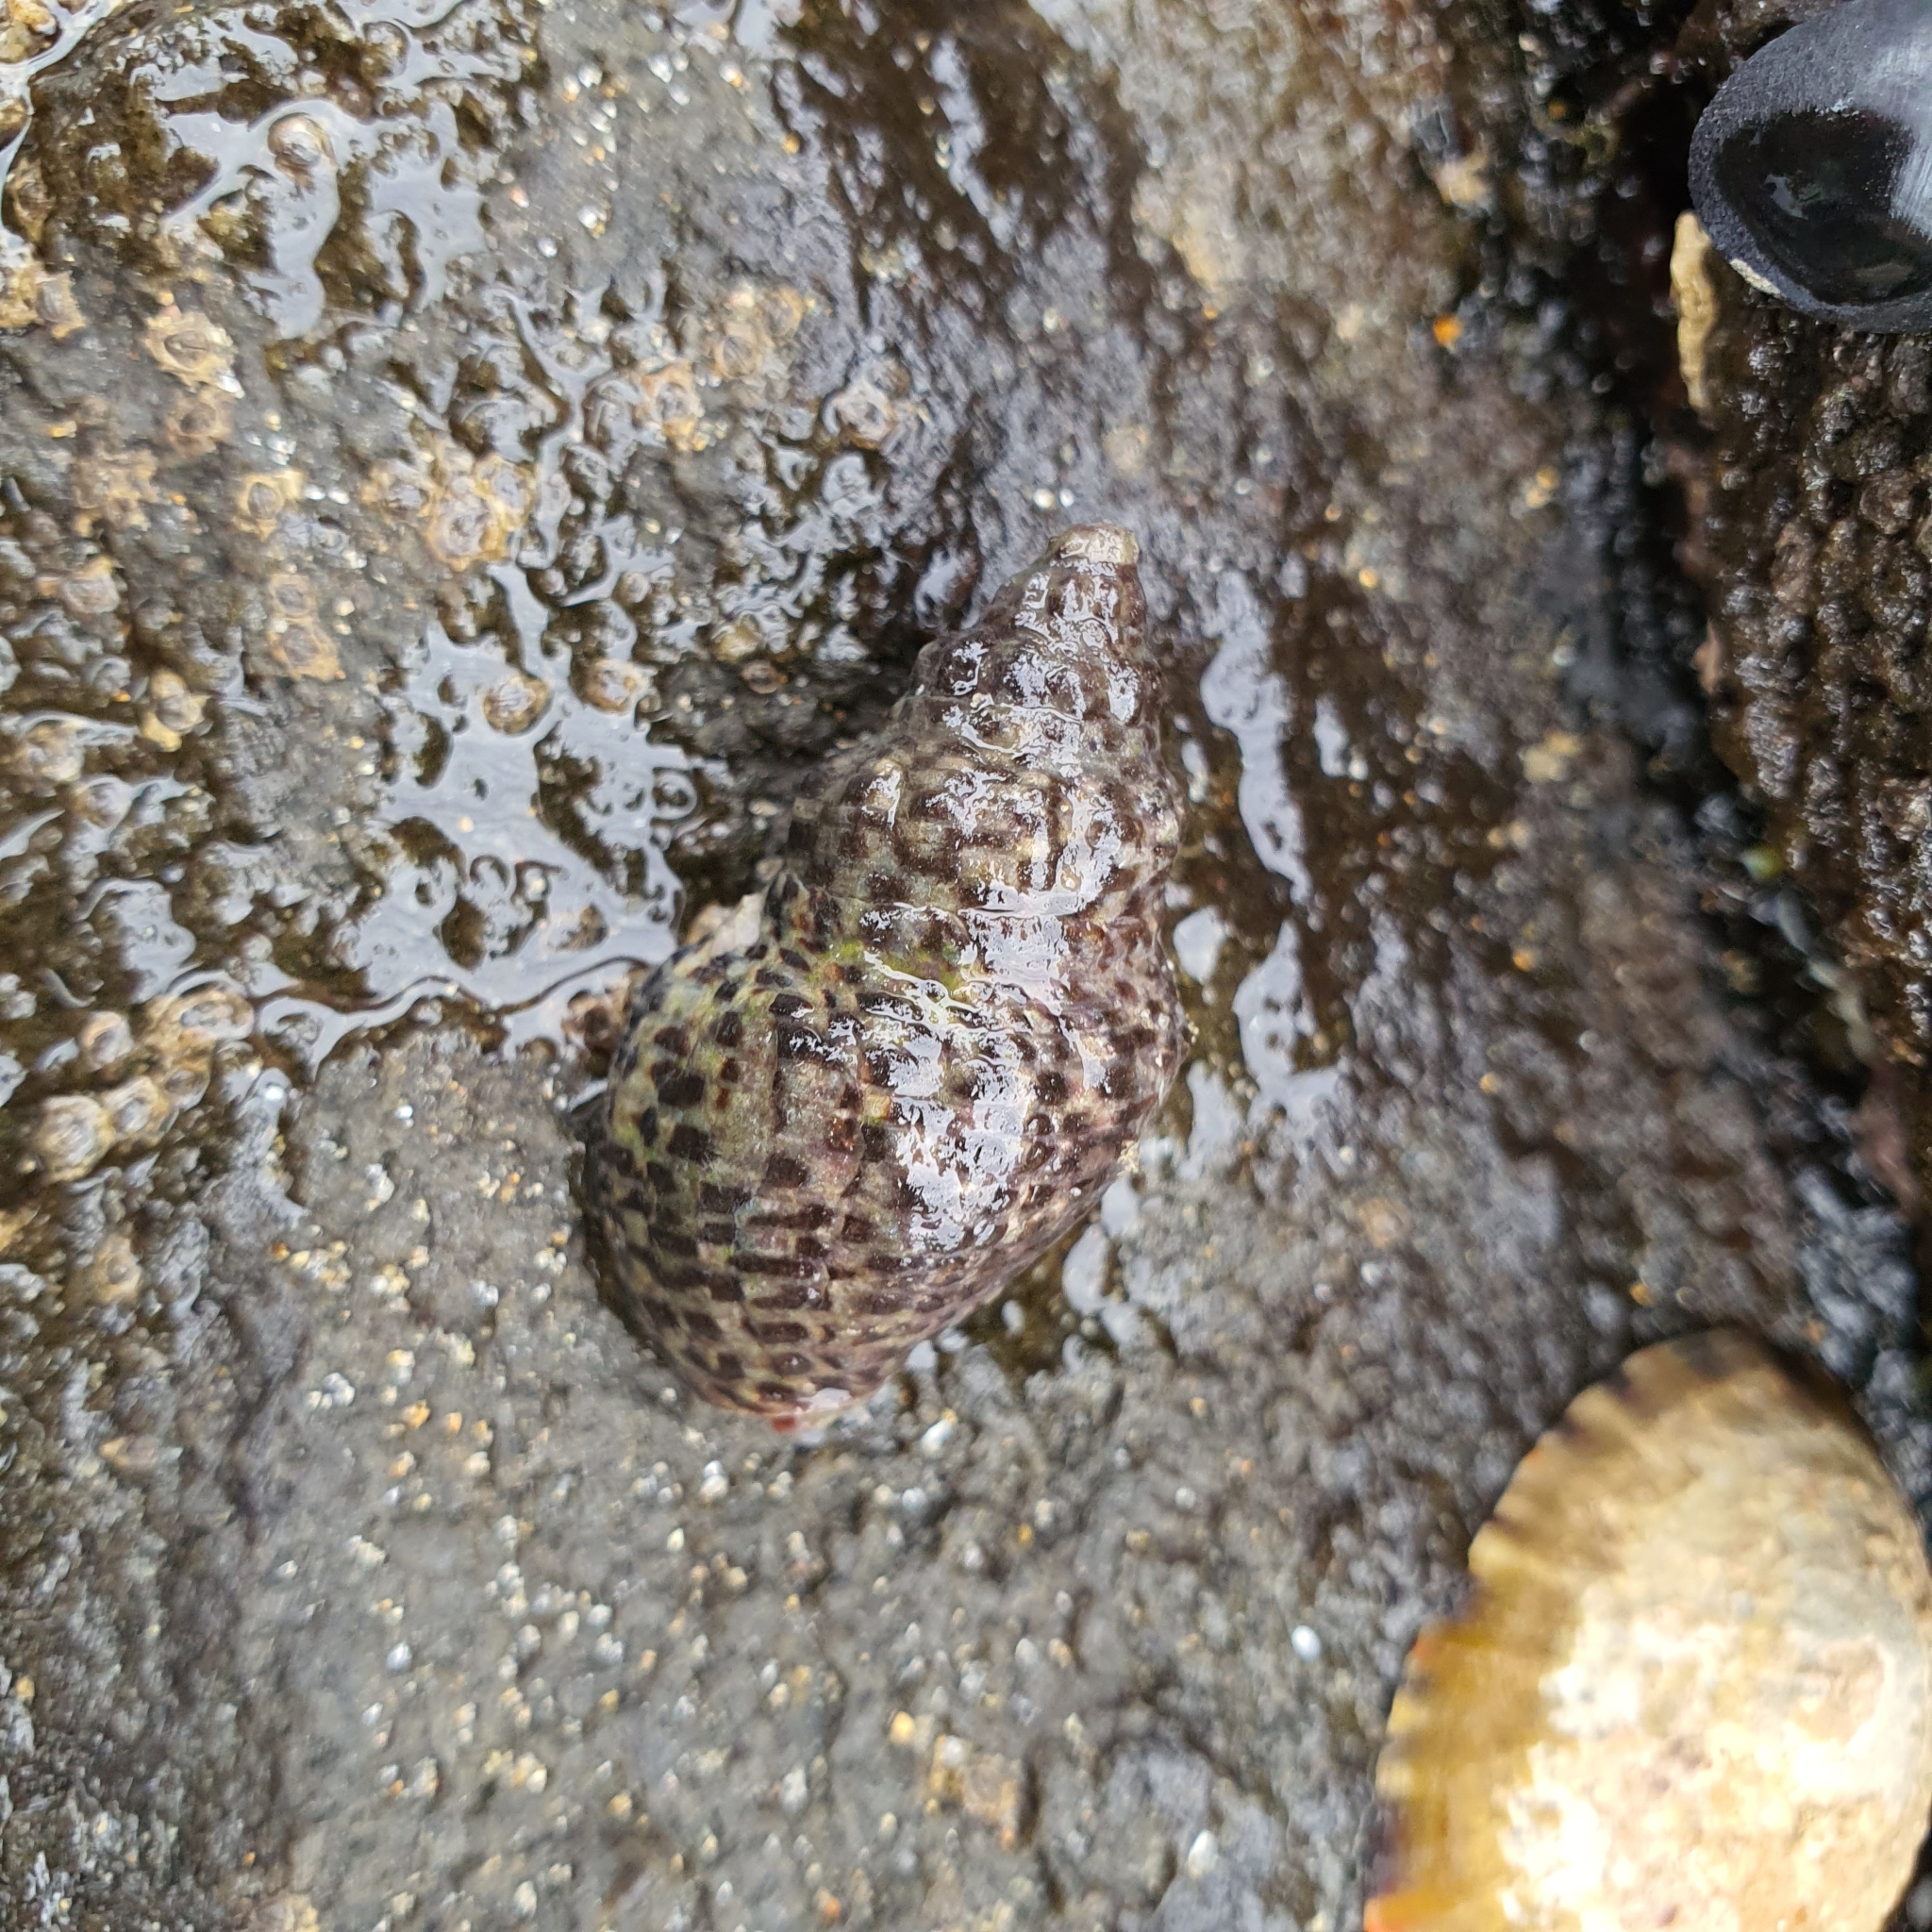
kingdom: Animalia
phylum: Mollusca
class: Gastropoda
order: Neogastropoda
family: Cominellidae
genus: Cominella
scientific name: Cominella lineolata
